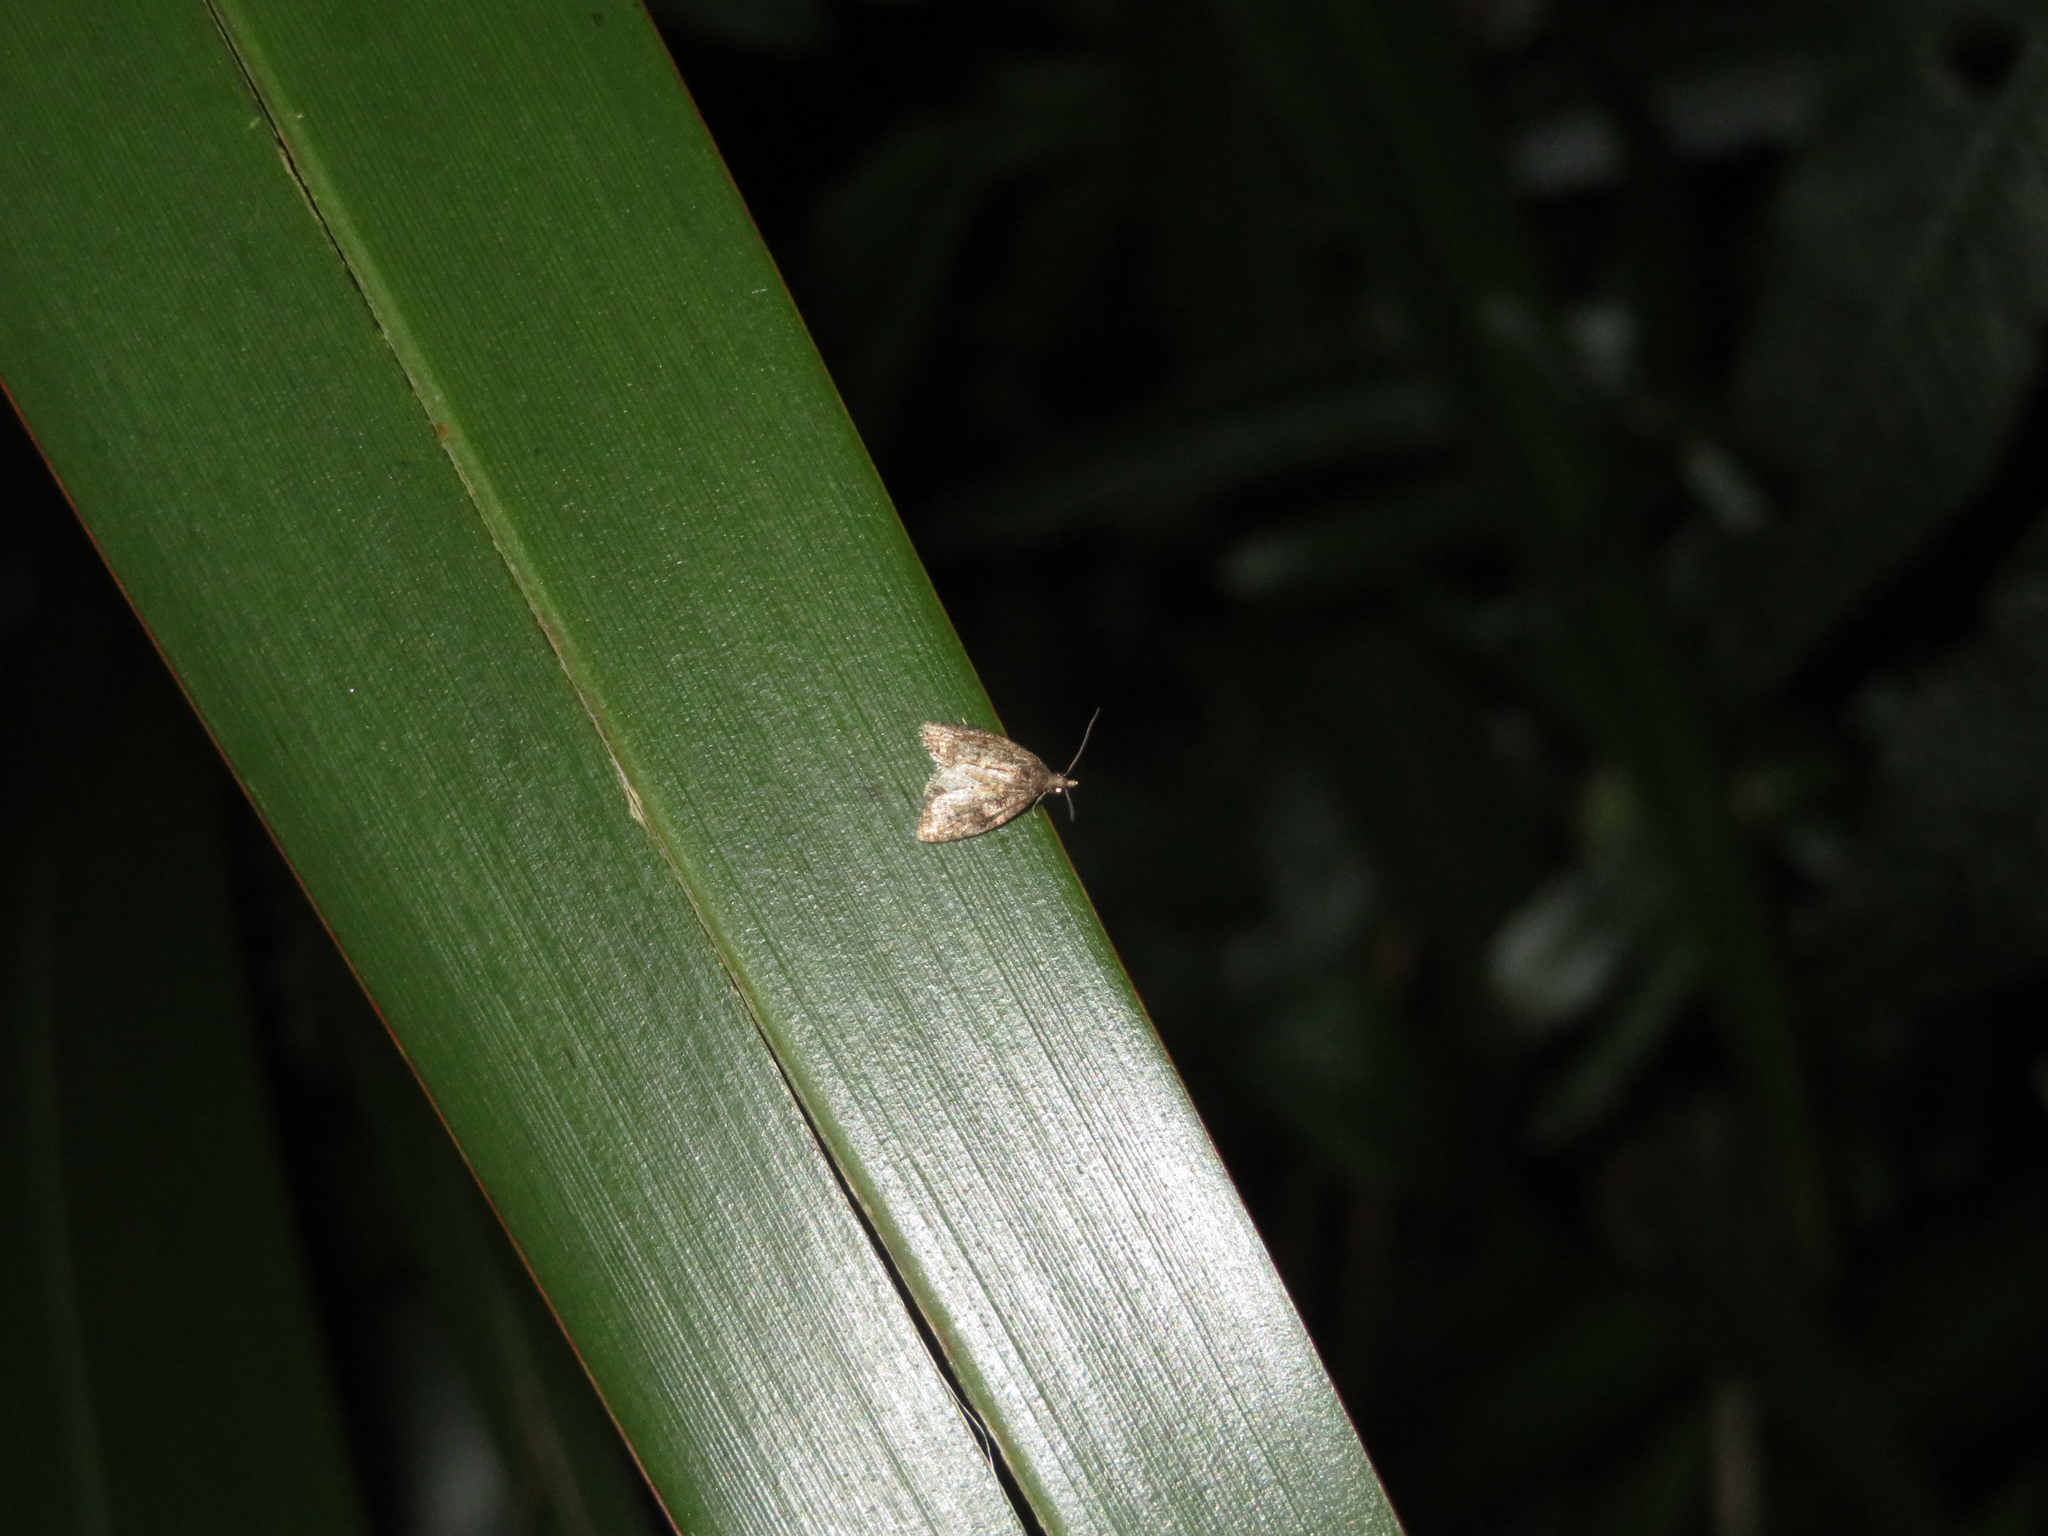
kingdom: Animalia
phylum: Arthropoda
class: Insecta
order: Lepidoptera
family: Tortricidae
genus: Capua
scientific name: Capua intractana
